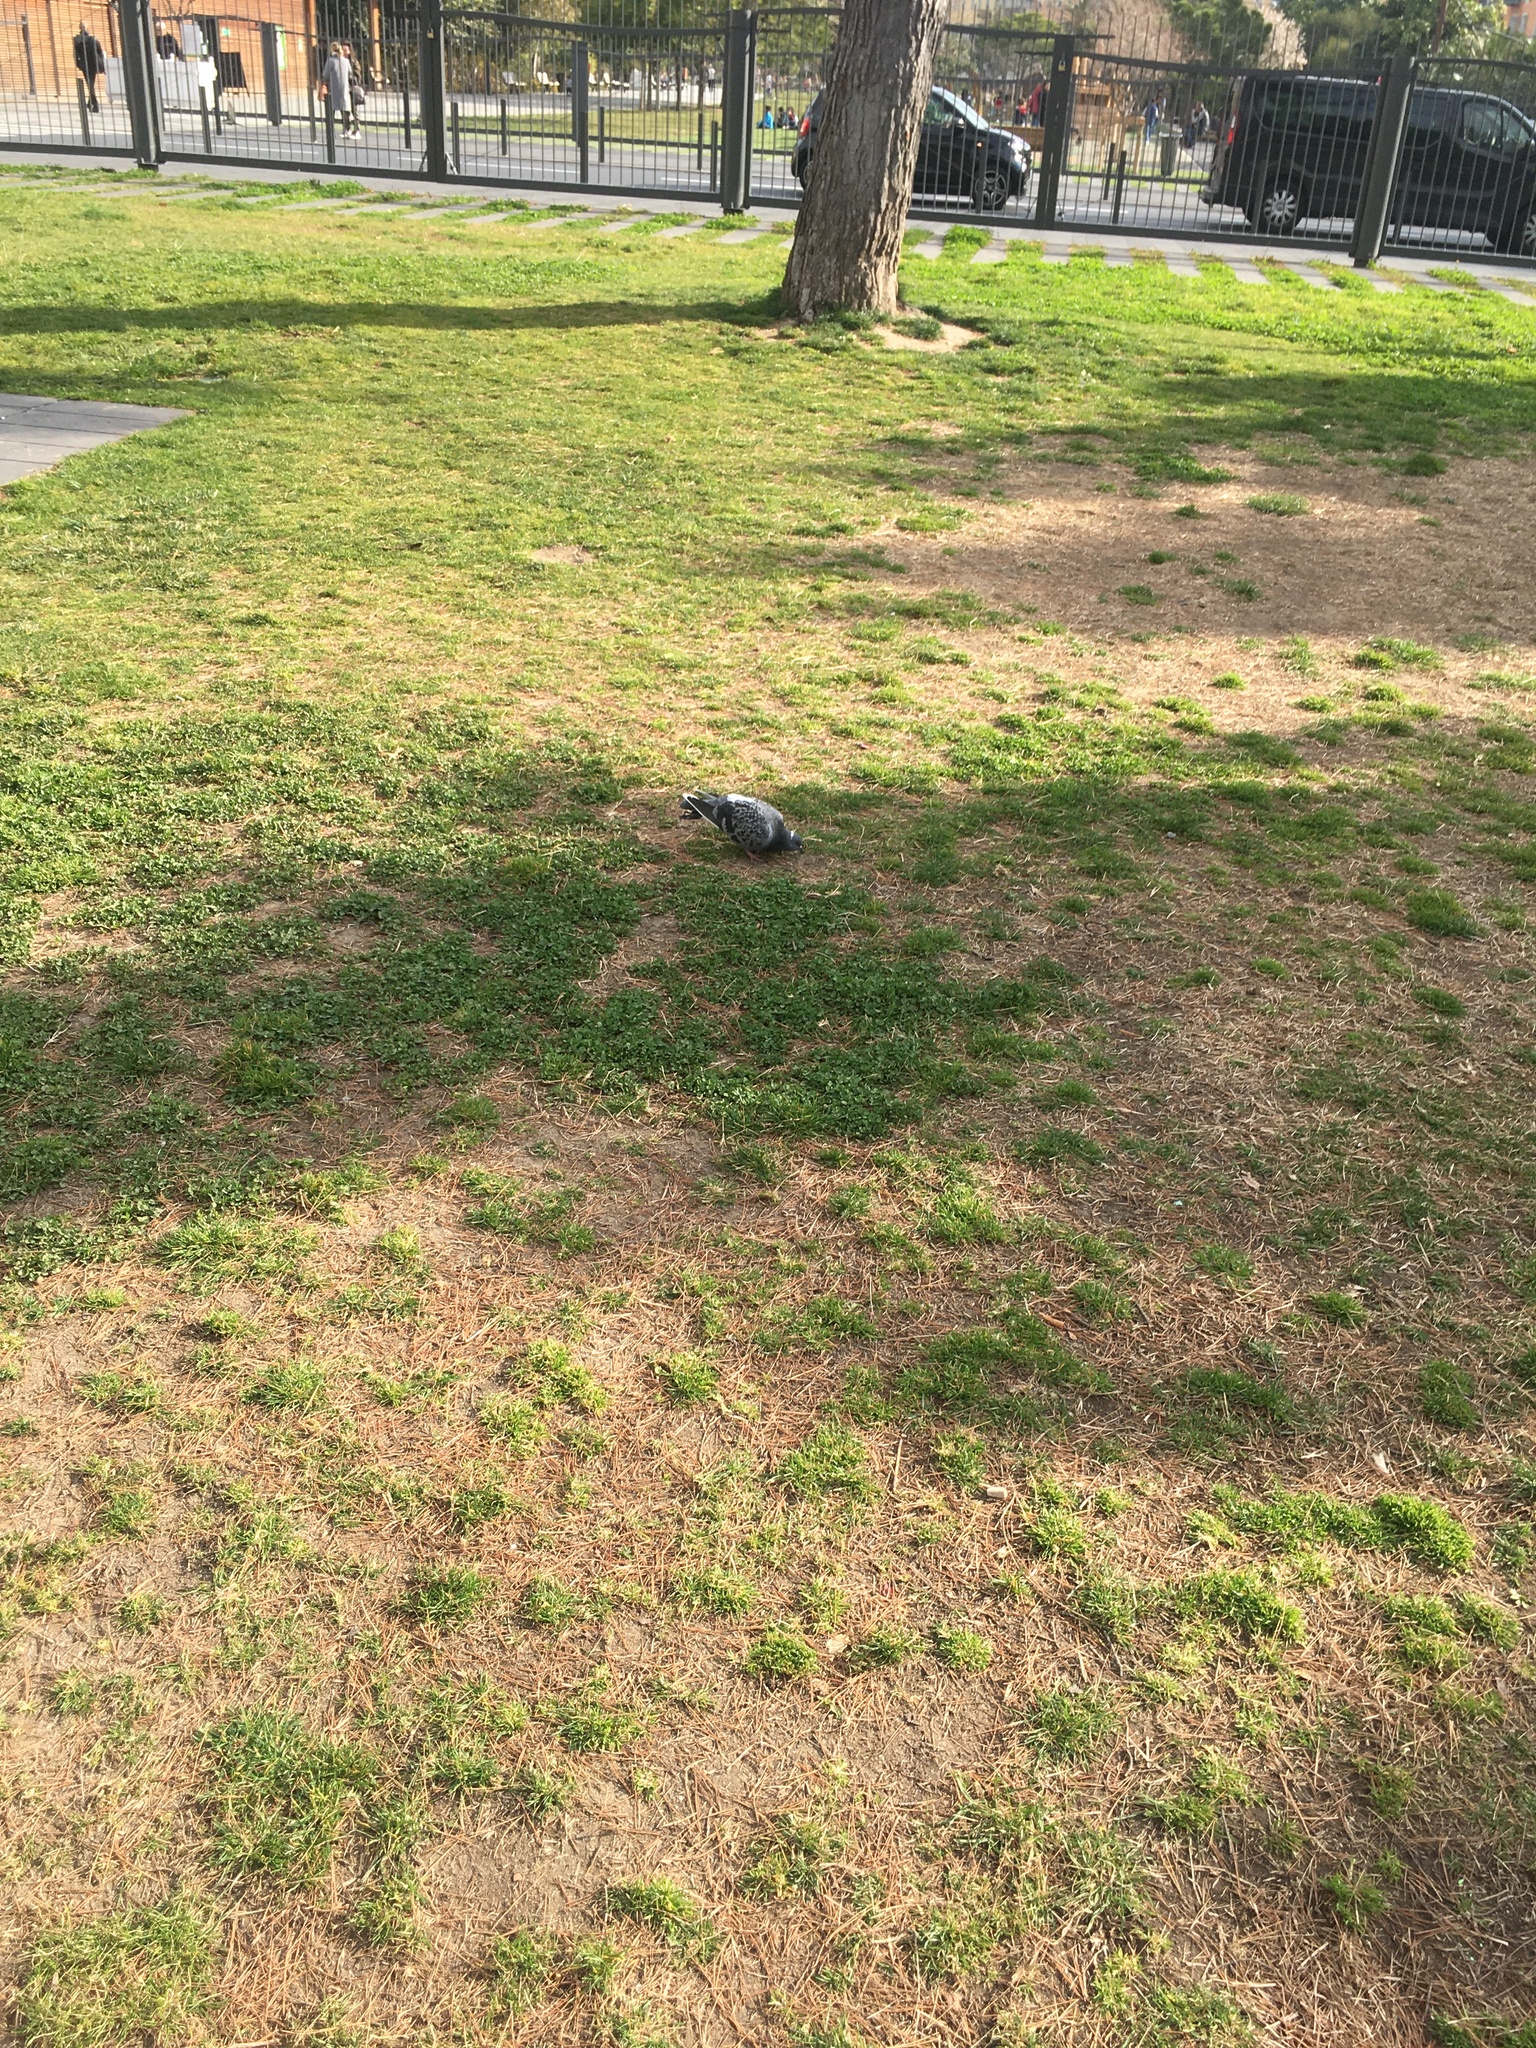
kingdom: Animalia
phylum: Chordata
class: Aves
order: Columbiformes
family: Columbidae
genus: Columba
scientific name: Columba livia
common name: Rock pigeon
